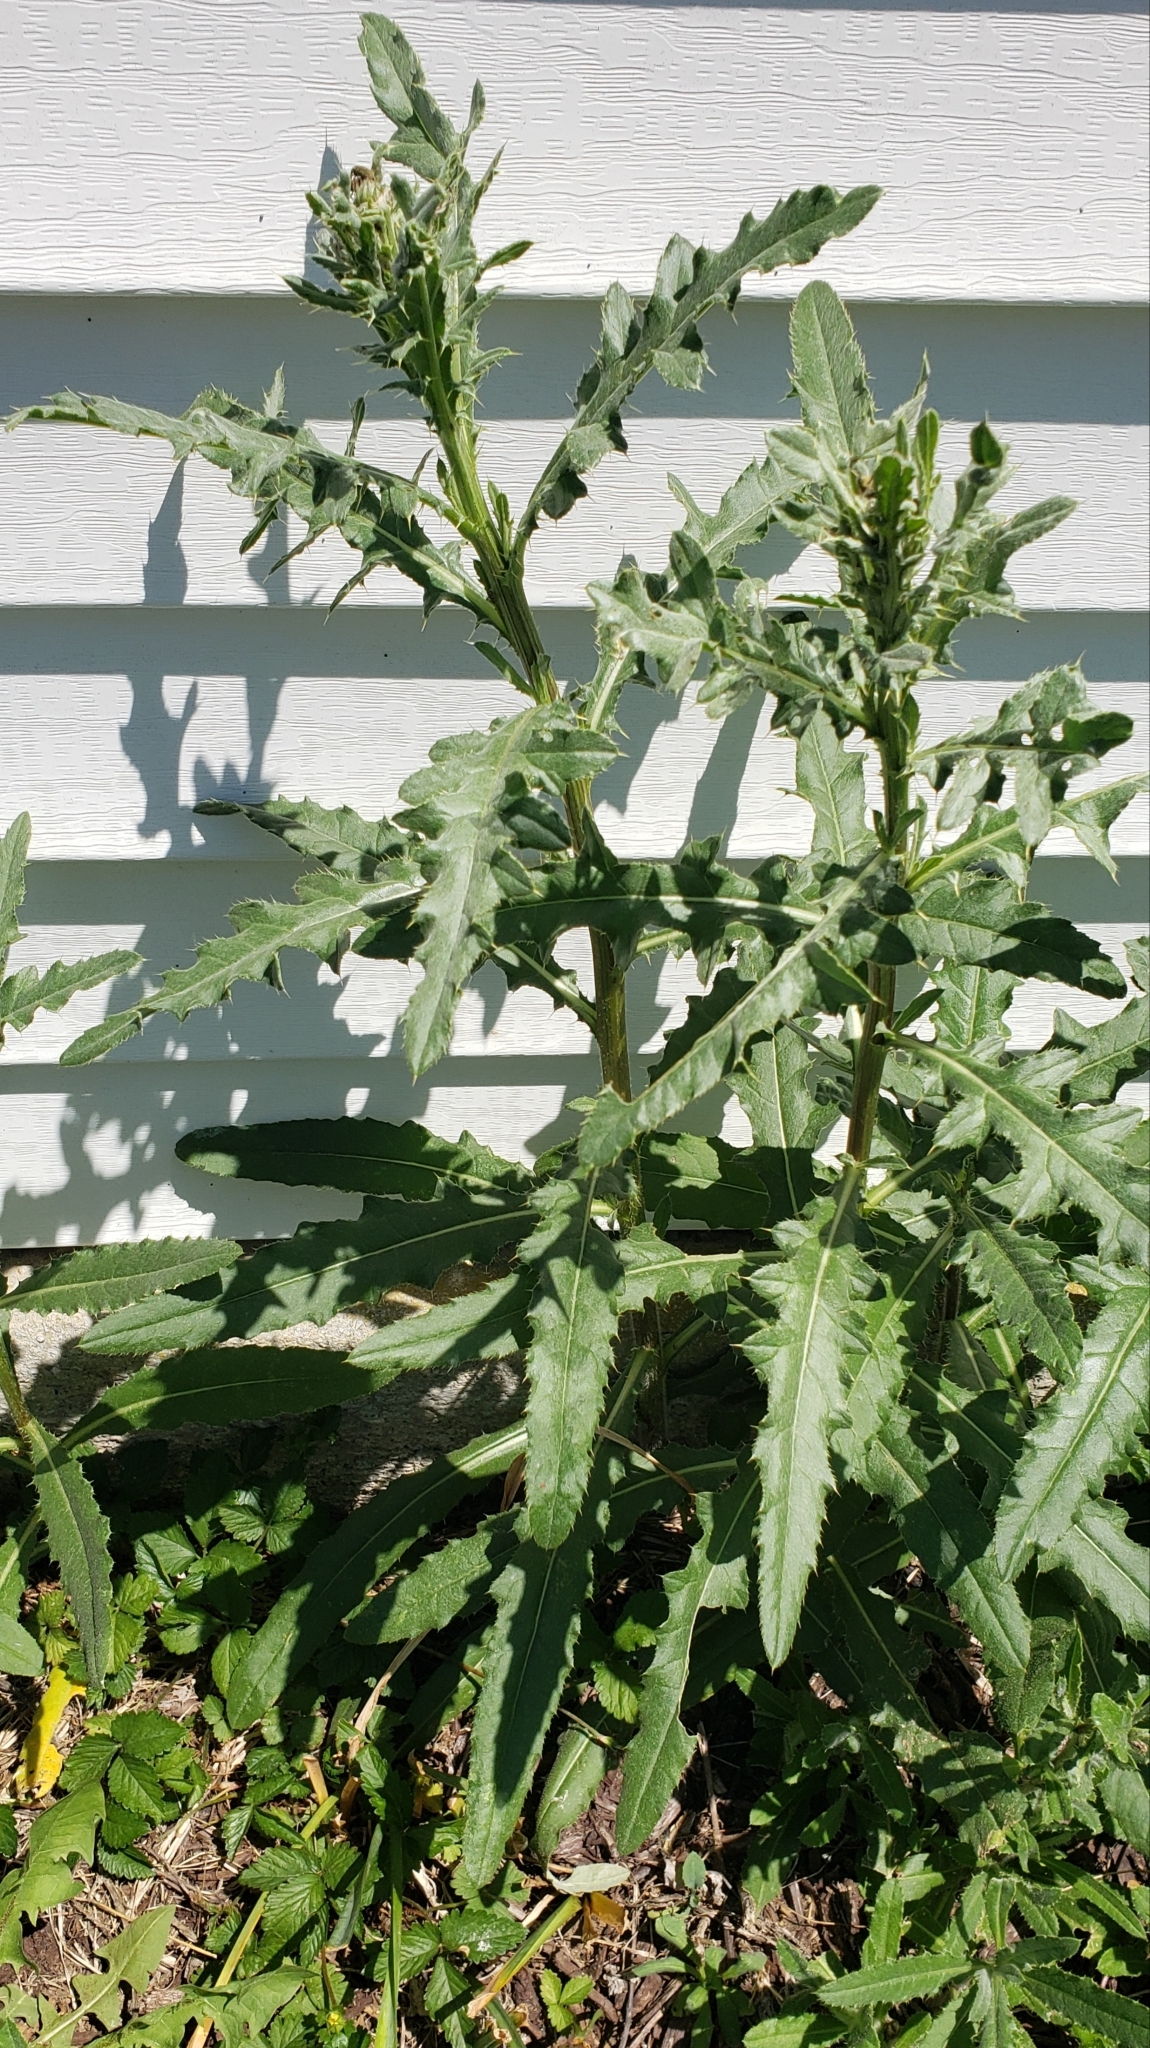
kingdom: Plantae
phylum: Tracheophyta
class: Magnoliopsida
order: Asterales
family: Asteraceae
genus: Cirsium
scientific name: Cirsium arvense
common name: Creeping thistle
